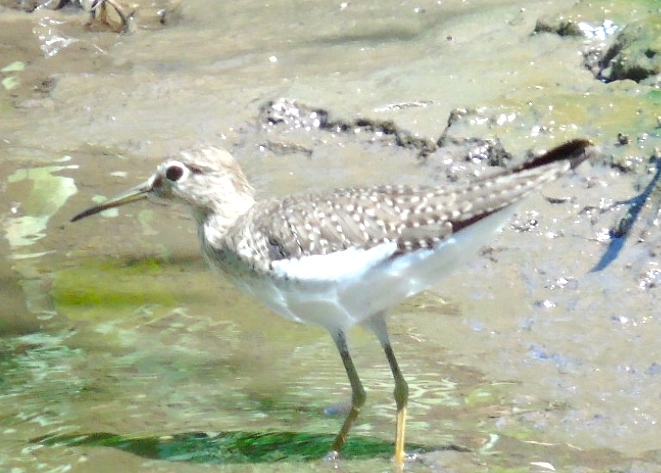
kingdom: Animalia
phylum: Chordata
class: Aves
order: Charadriiformes
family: Scolopacidae
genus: Tringa
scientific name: Tringa solitaria
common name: Solitary sandpiper
